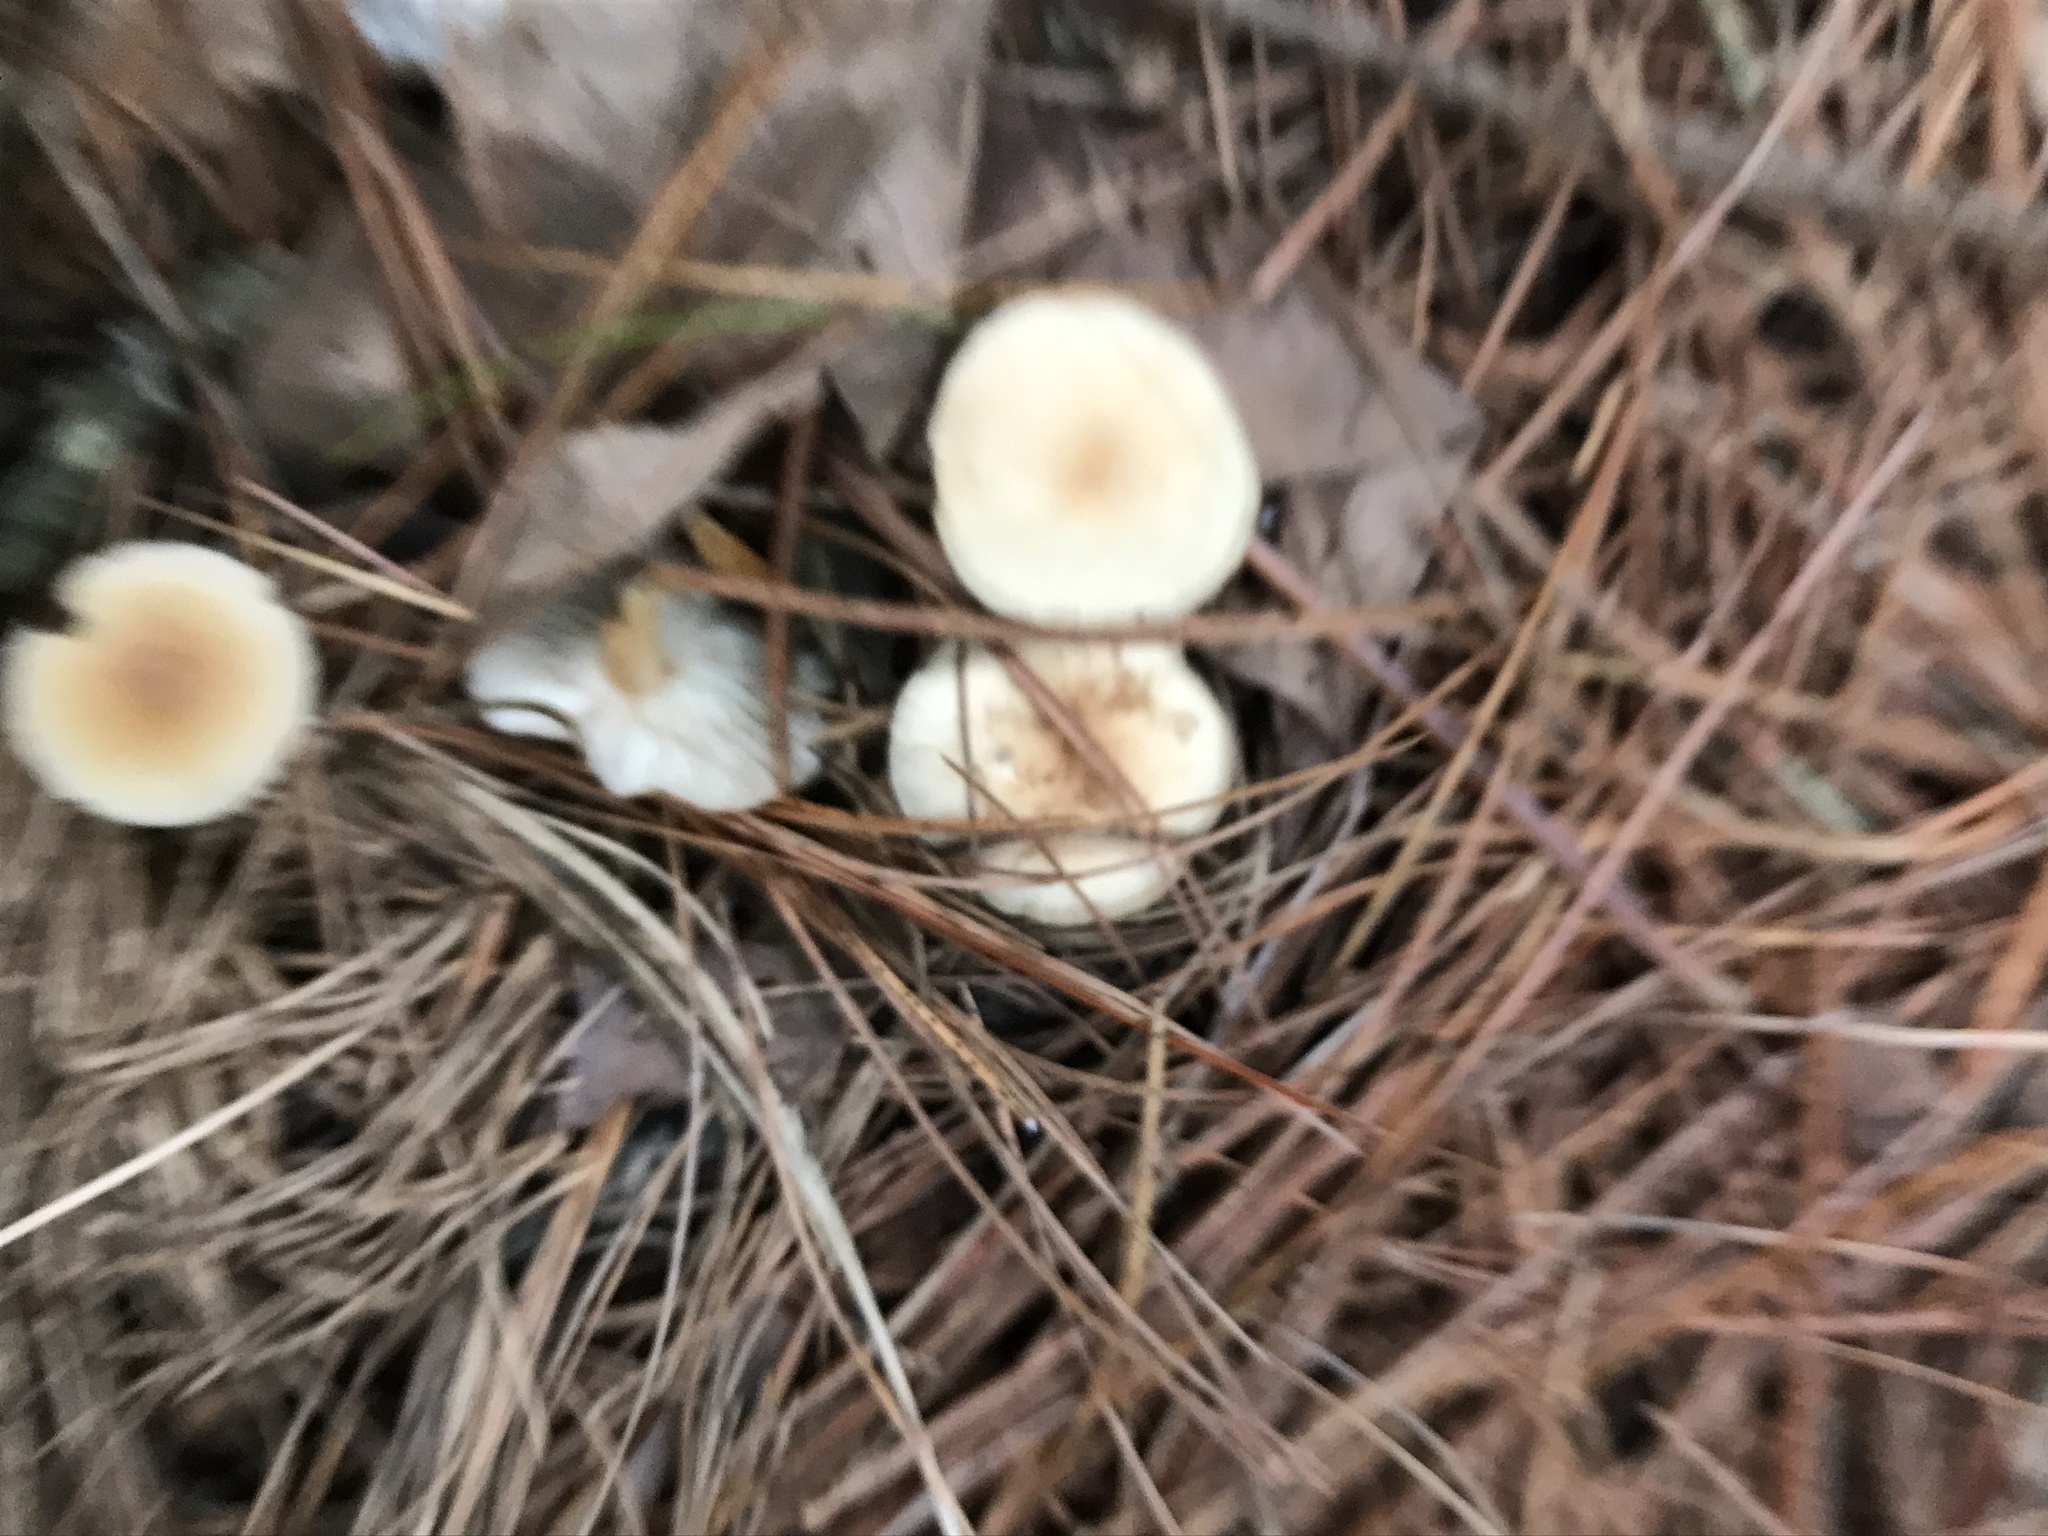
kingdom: Fungi
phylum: Basidiomycota
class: Agaricomycetes
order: Agaricales
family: Omphalotaceae
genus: Gymnopus
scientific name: Gymnopus dryophilus
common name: Penny top
